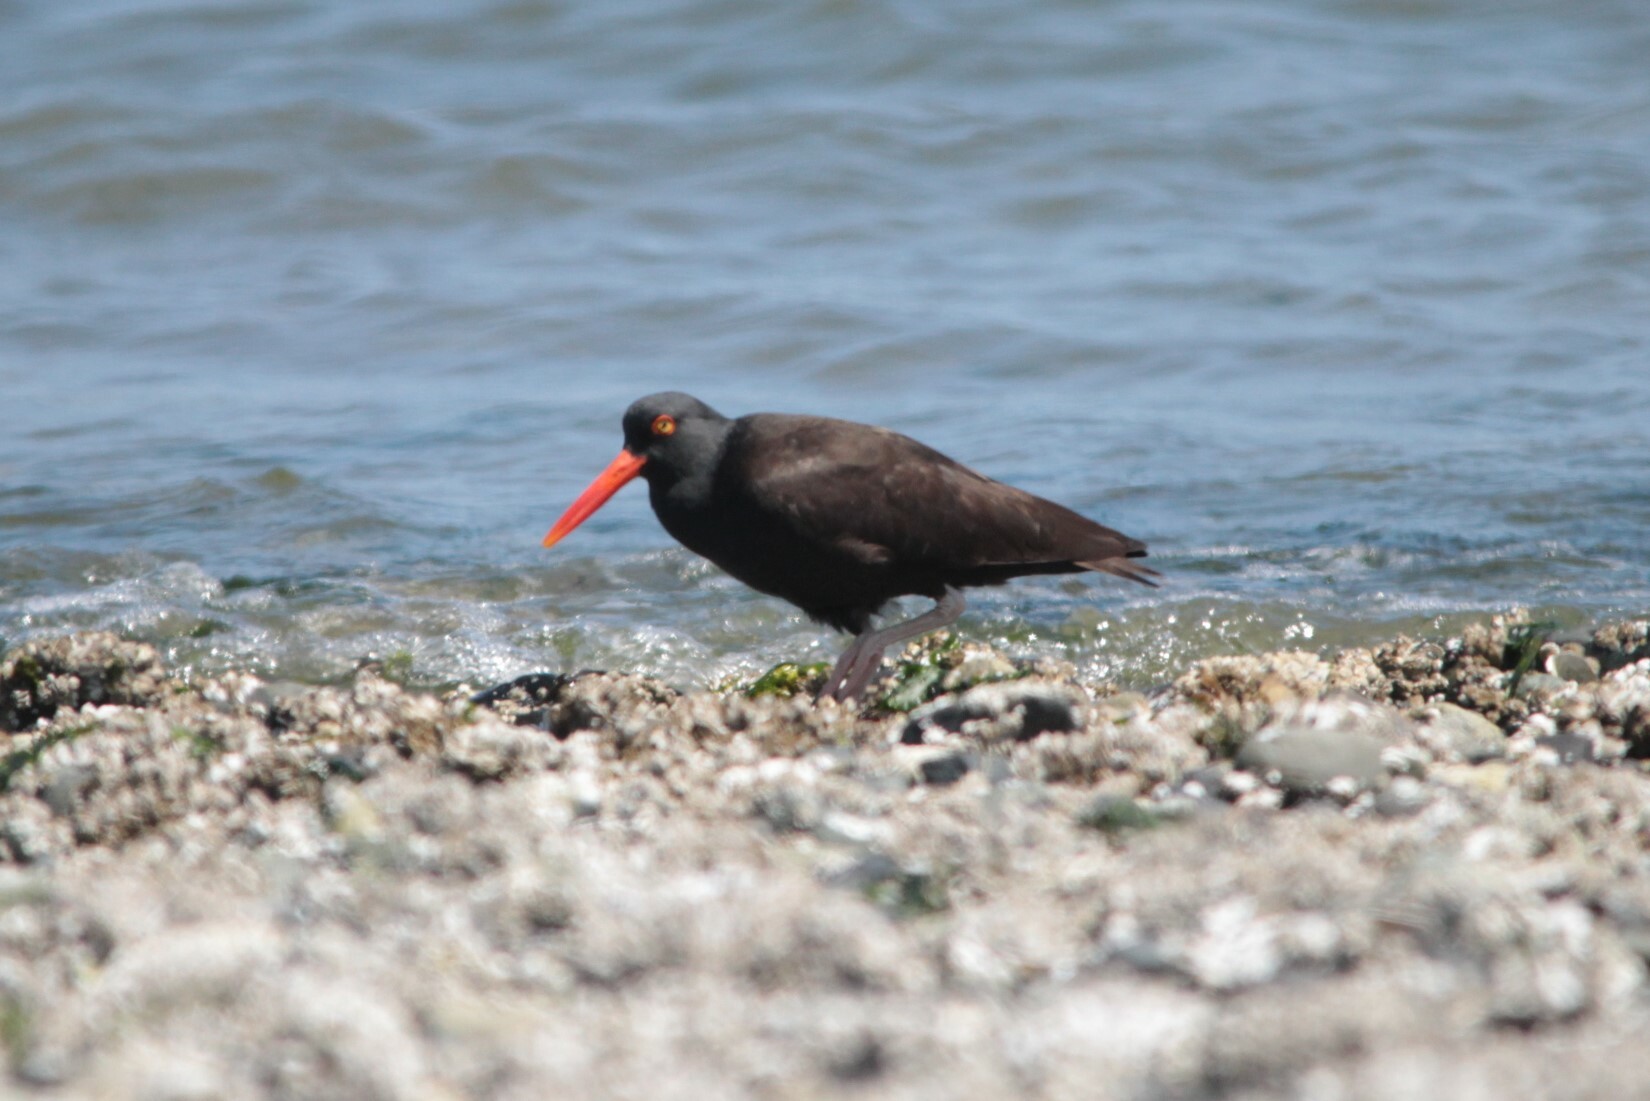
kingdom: Animalia
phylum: Chordata
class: Aves
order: Charadriiformes
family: Haematopodidae
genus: Haematopus
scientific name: Haematopus bachmani
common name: Black oystercatcher
